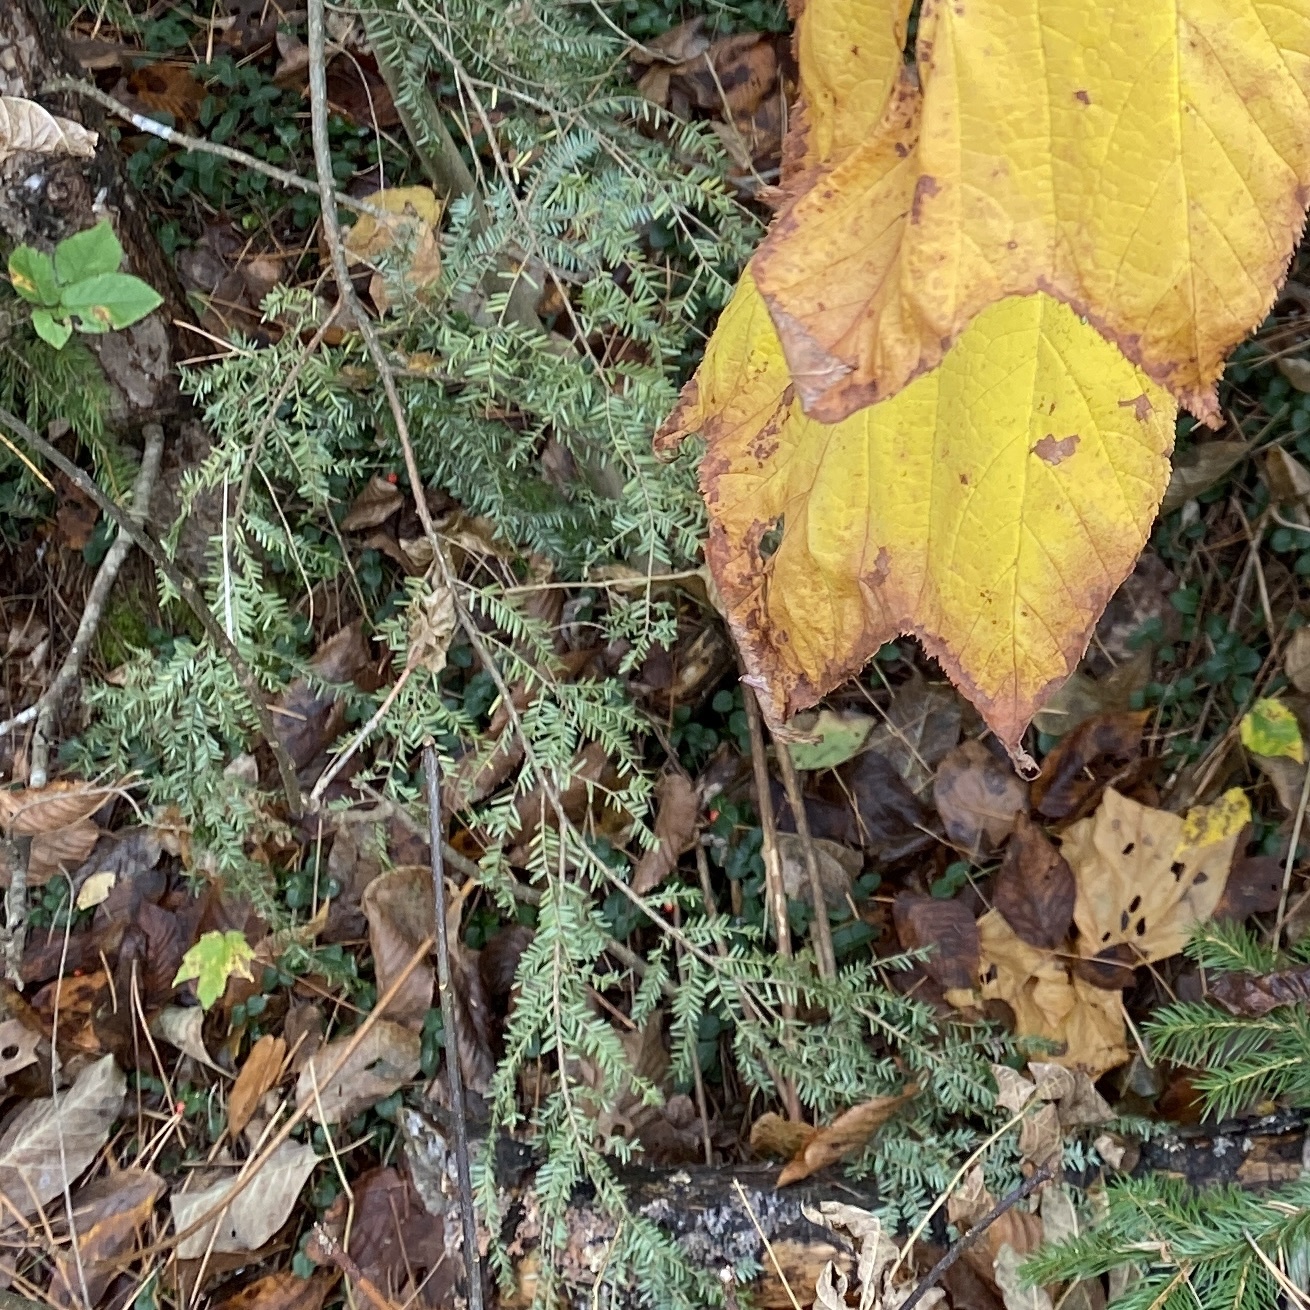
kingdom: Plantae
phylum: Tracheophyta
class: Pinopsida
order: Pinales
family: Pinaceae
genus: Tsuga
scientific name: Tsuga canadensis
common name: Eastern hemlock
